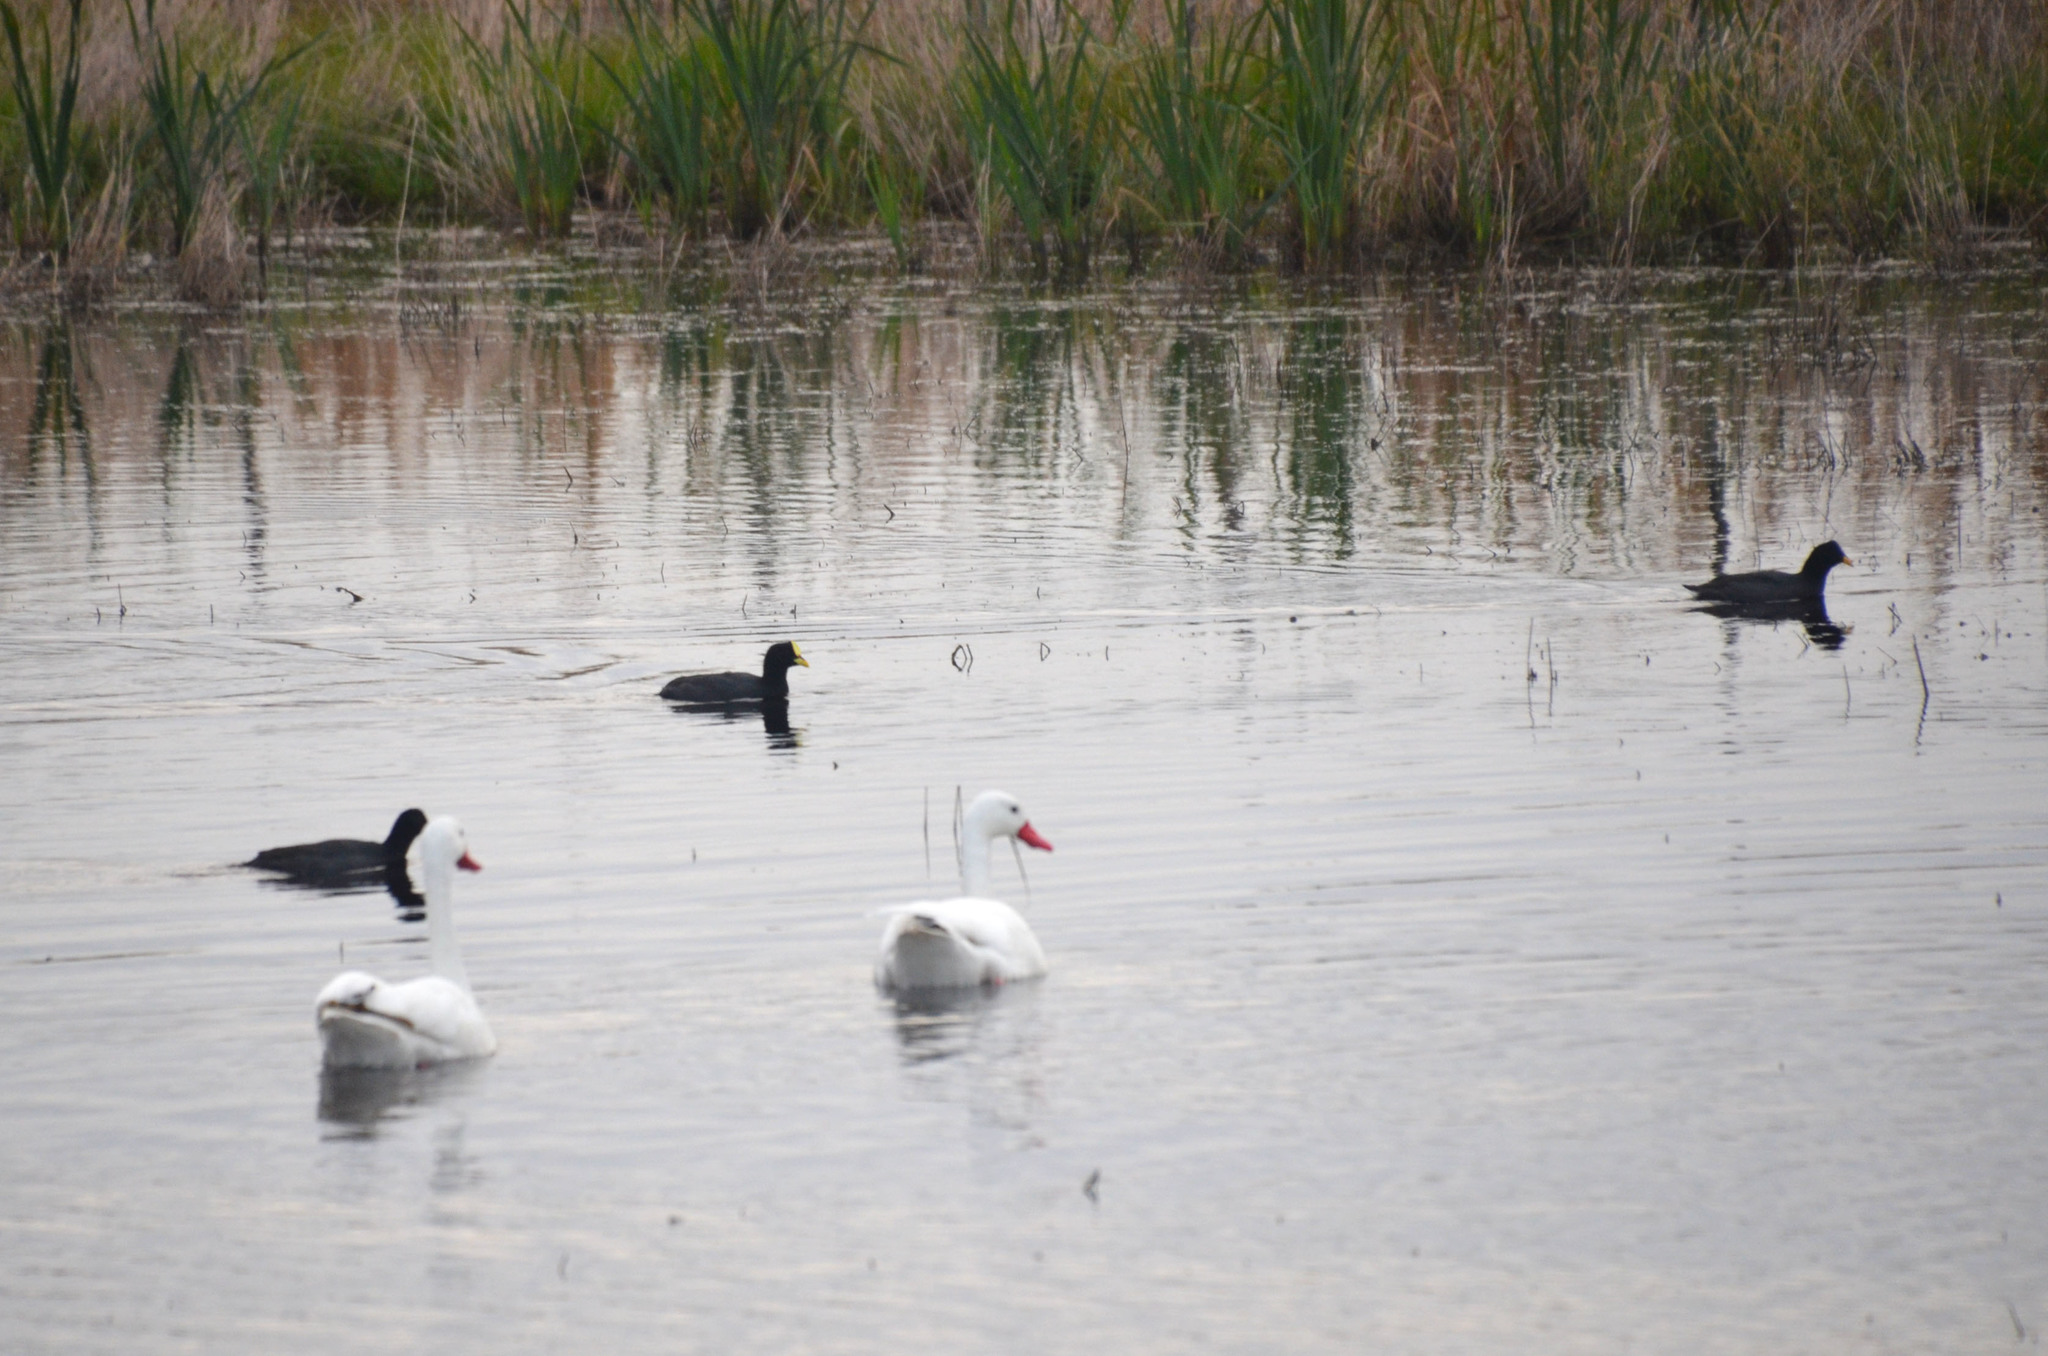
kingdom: Animalia
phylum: Chordata
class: Aves
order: Gruiformes
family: Rallidae
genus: Fulica
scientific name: Fulica armillata
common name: Red-gartered coot
